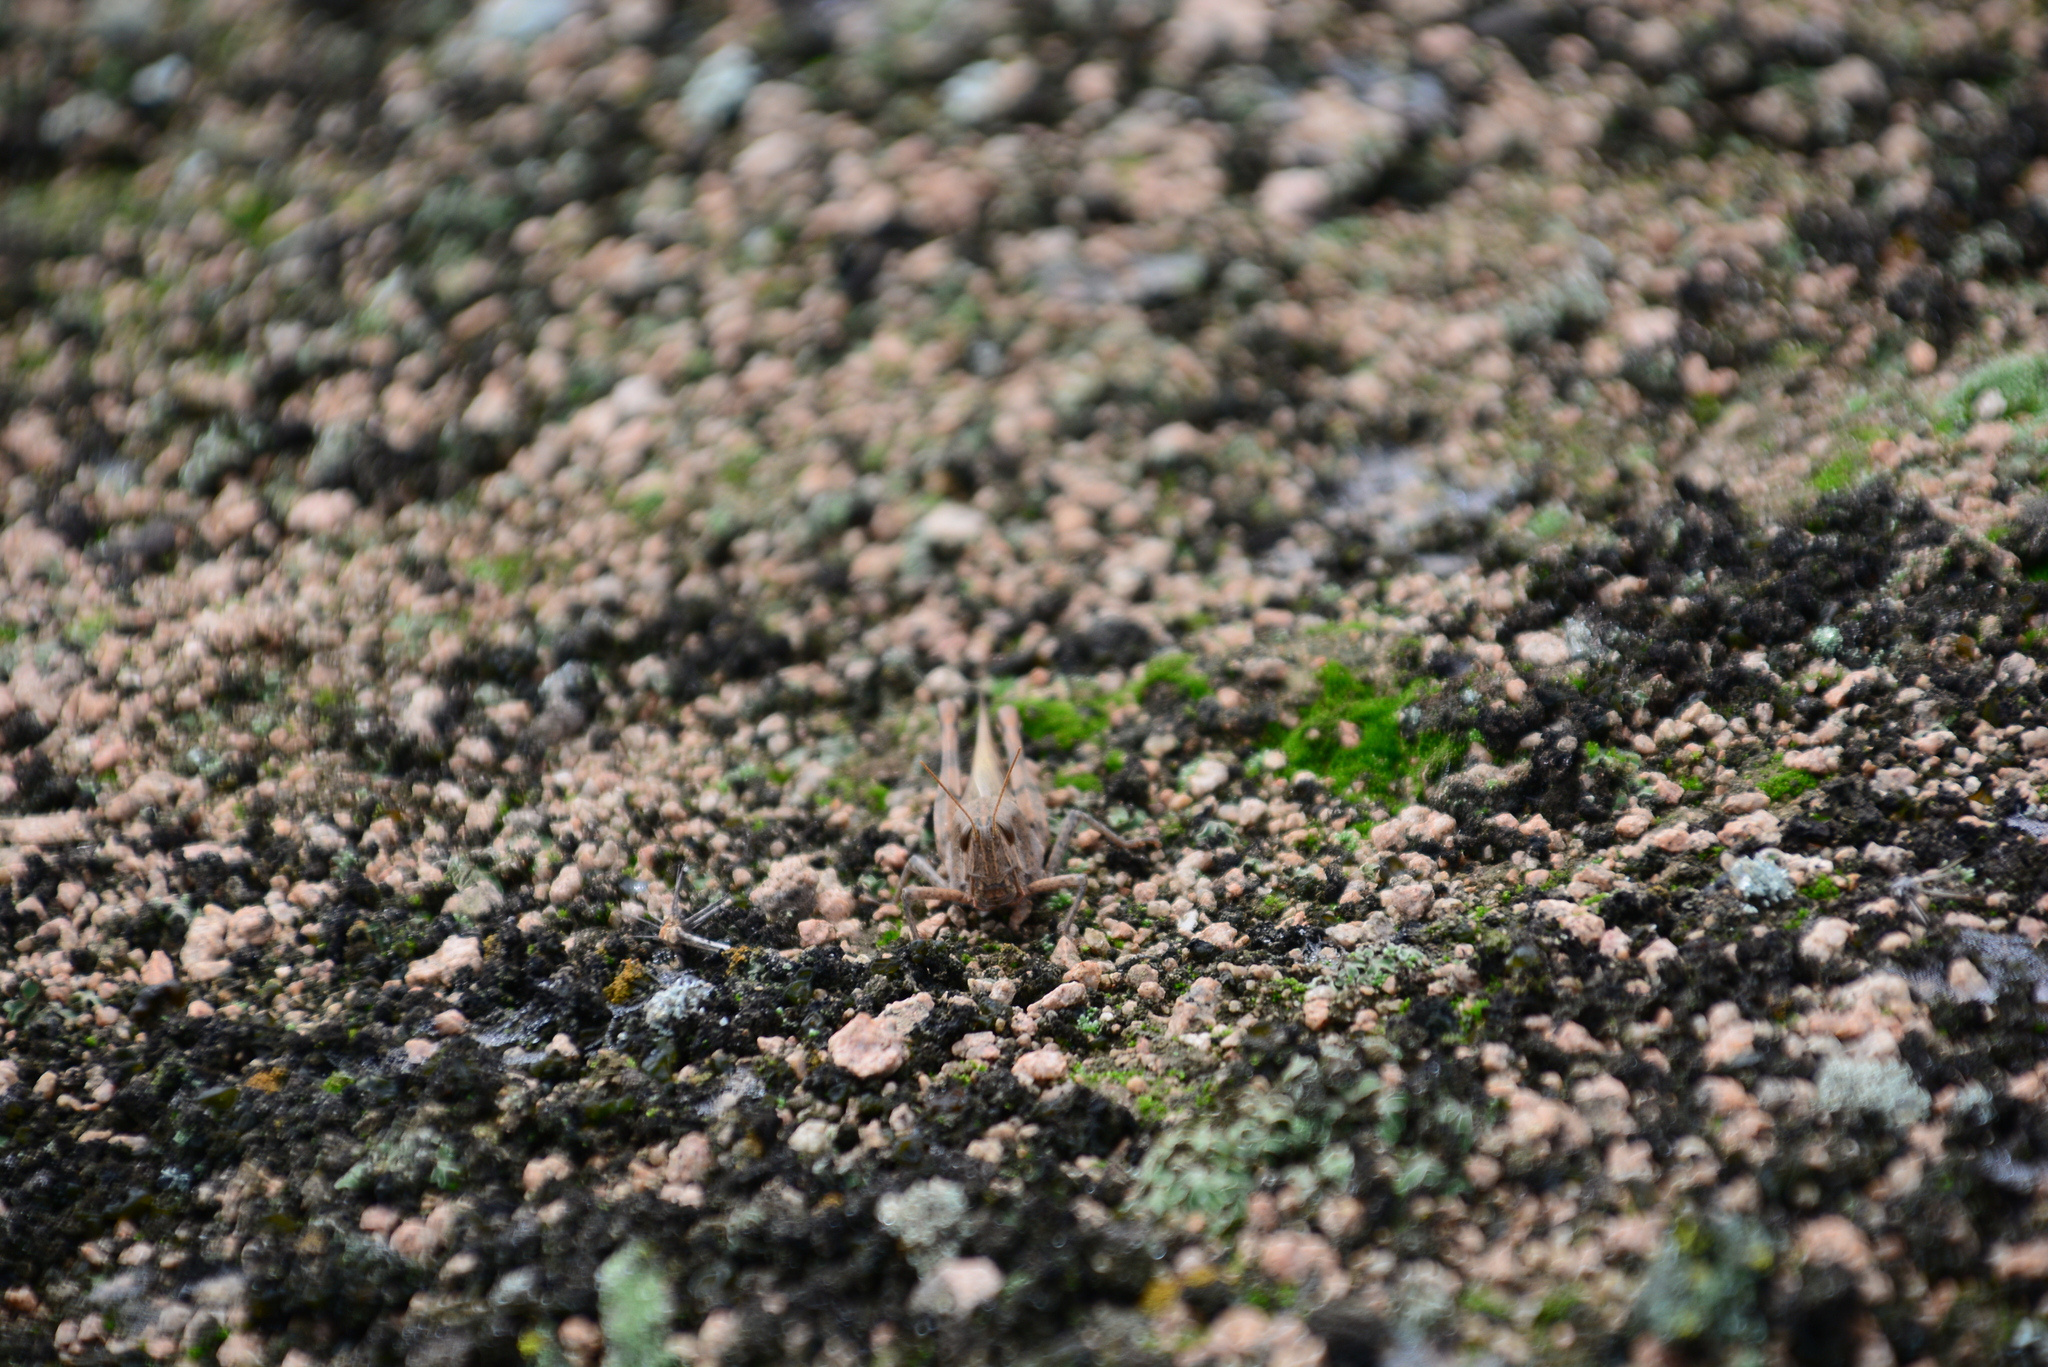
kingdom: Animalia
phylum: Arthropoda
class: Insecta
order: Orthoptera
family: Acrididae
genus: Schistocerca
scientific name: Schistocerca interrita
